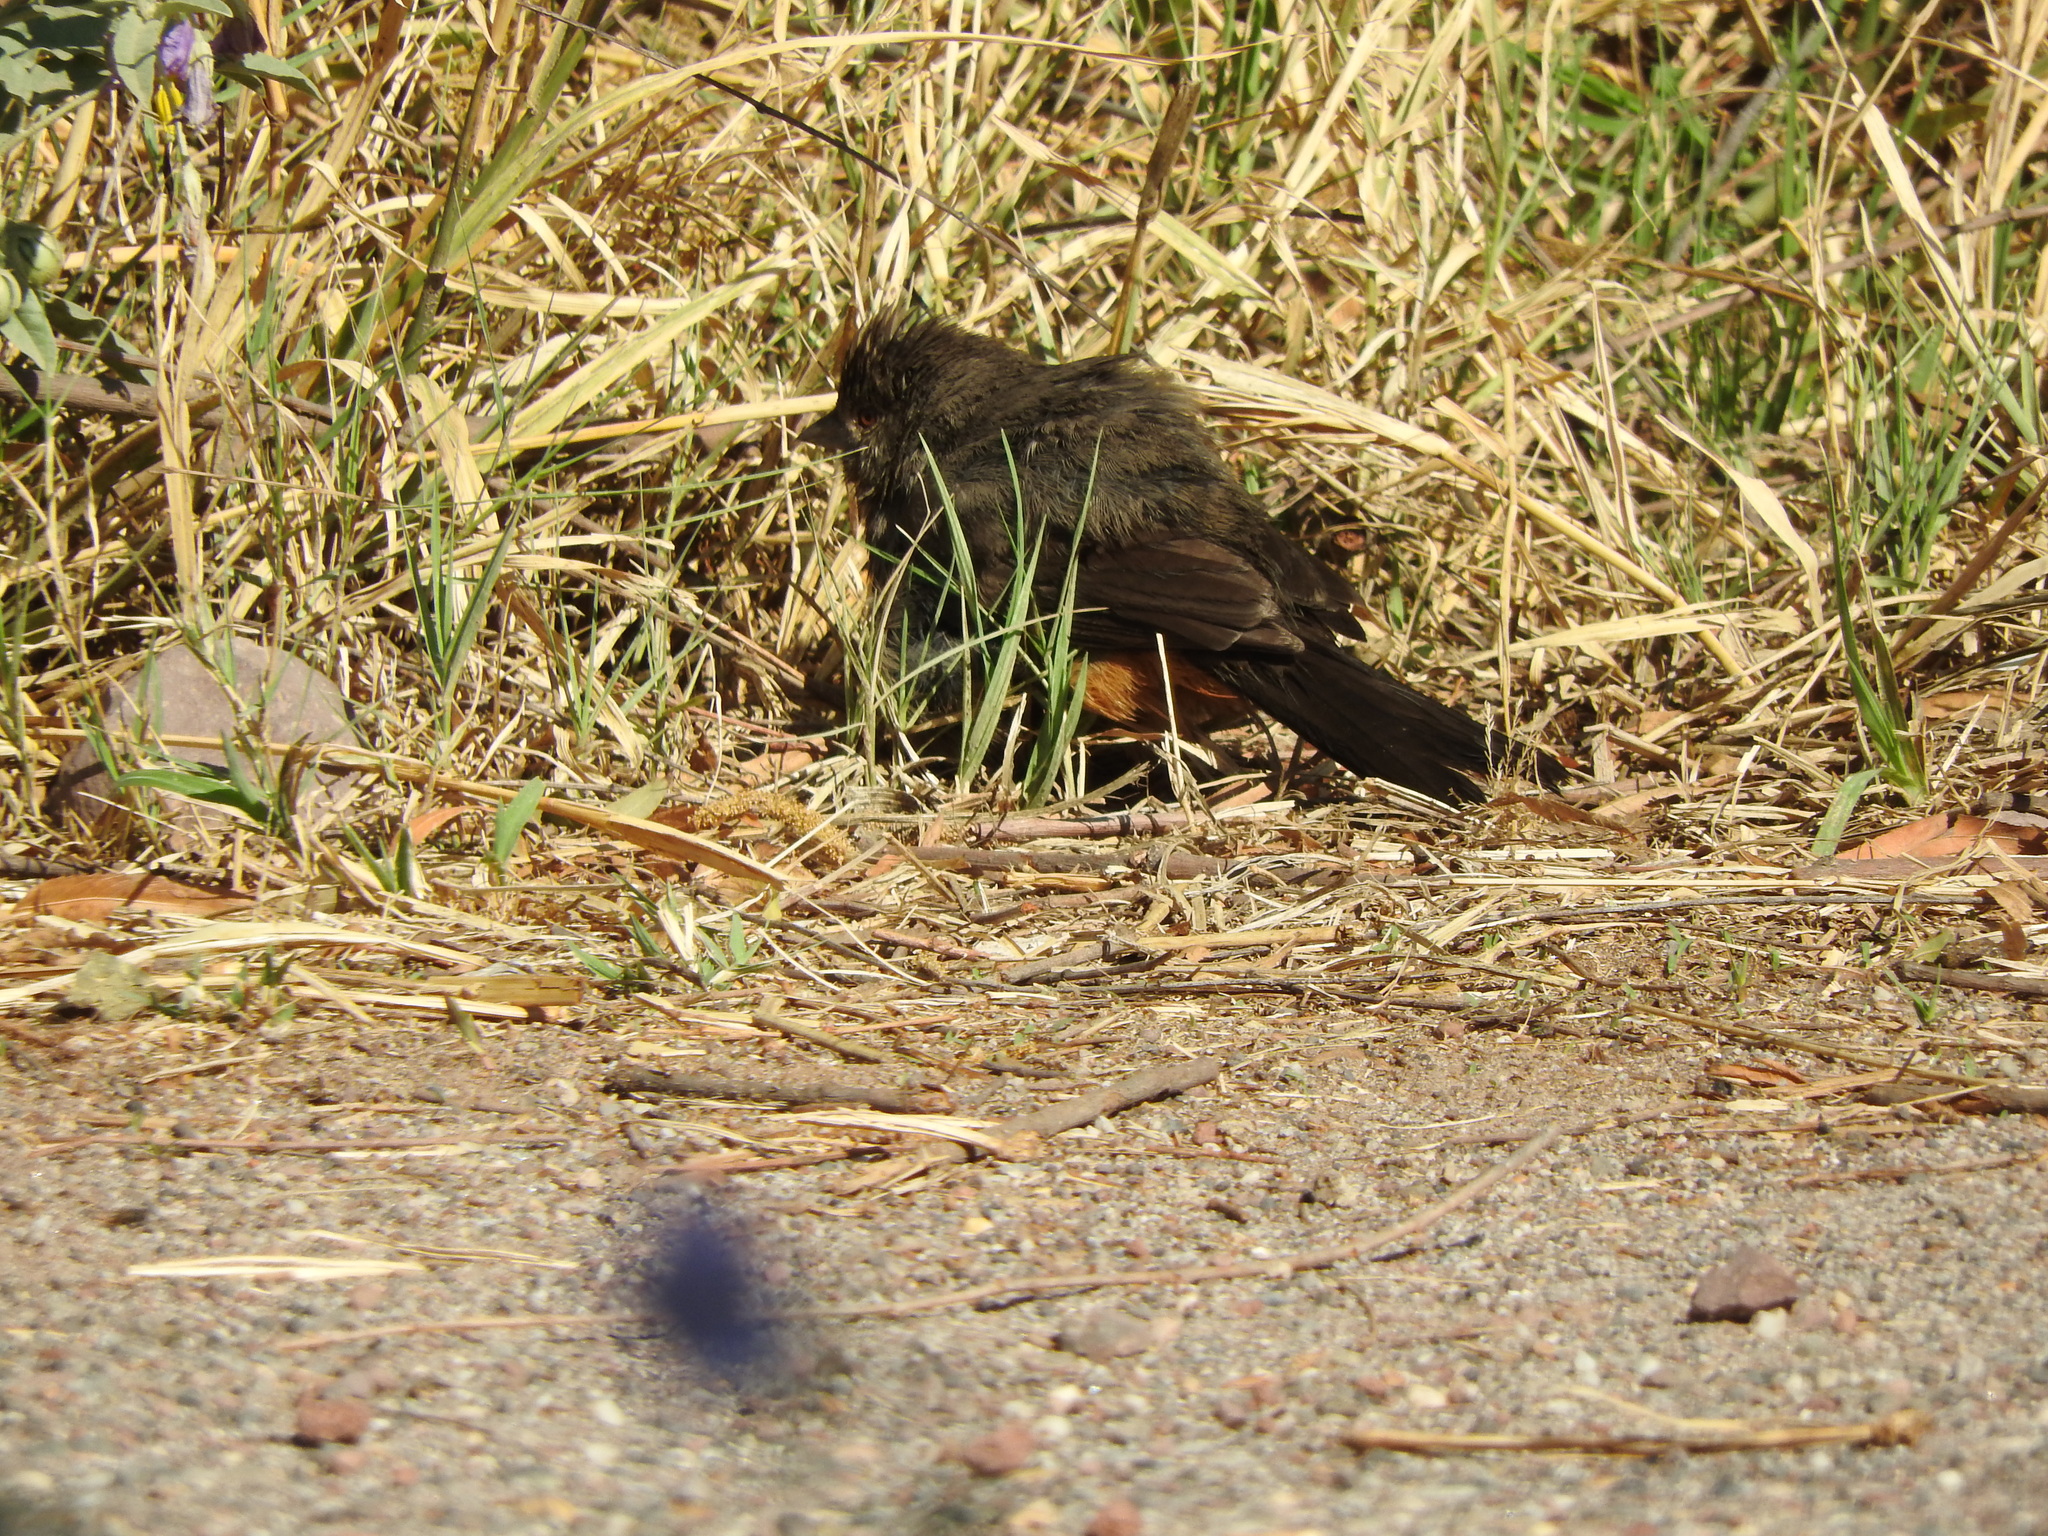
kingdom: Animalia
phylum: Chordata
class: Aves
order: Passeriformes
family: Passerellidae
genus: Melozone
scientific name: Melozone fusca
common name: Canyon towhee
